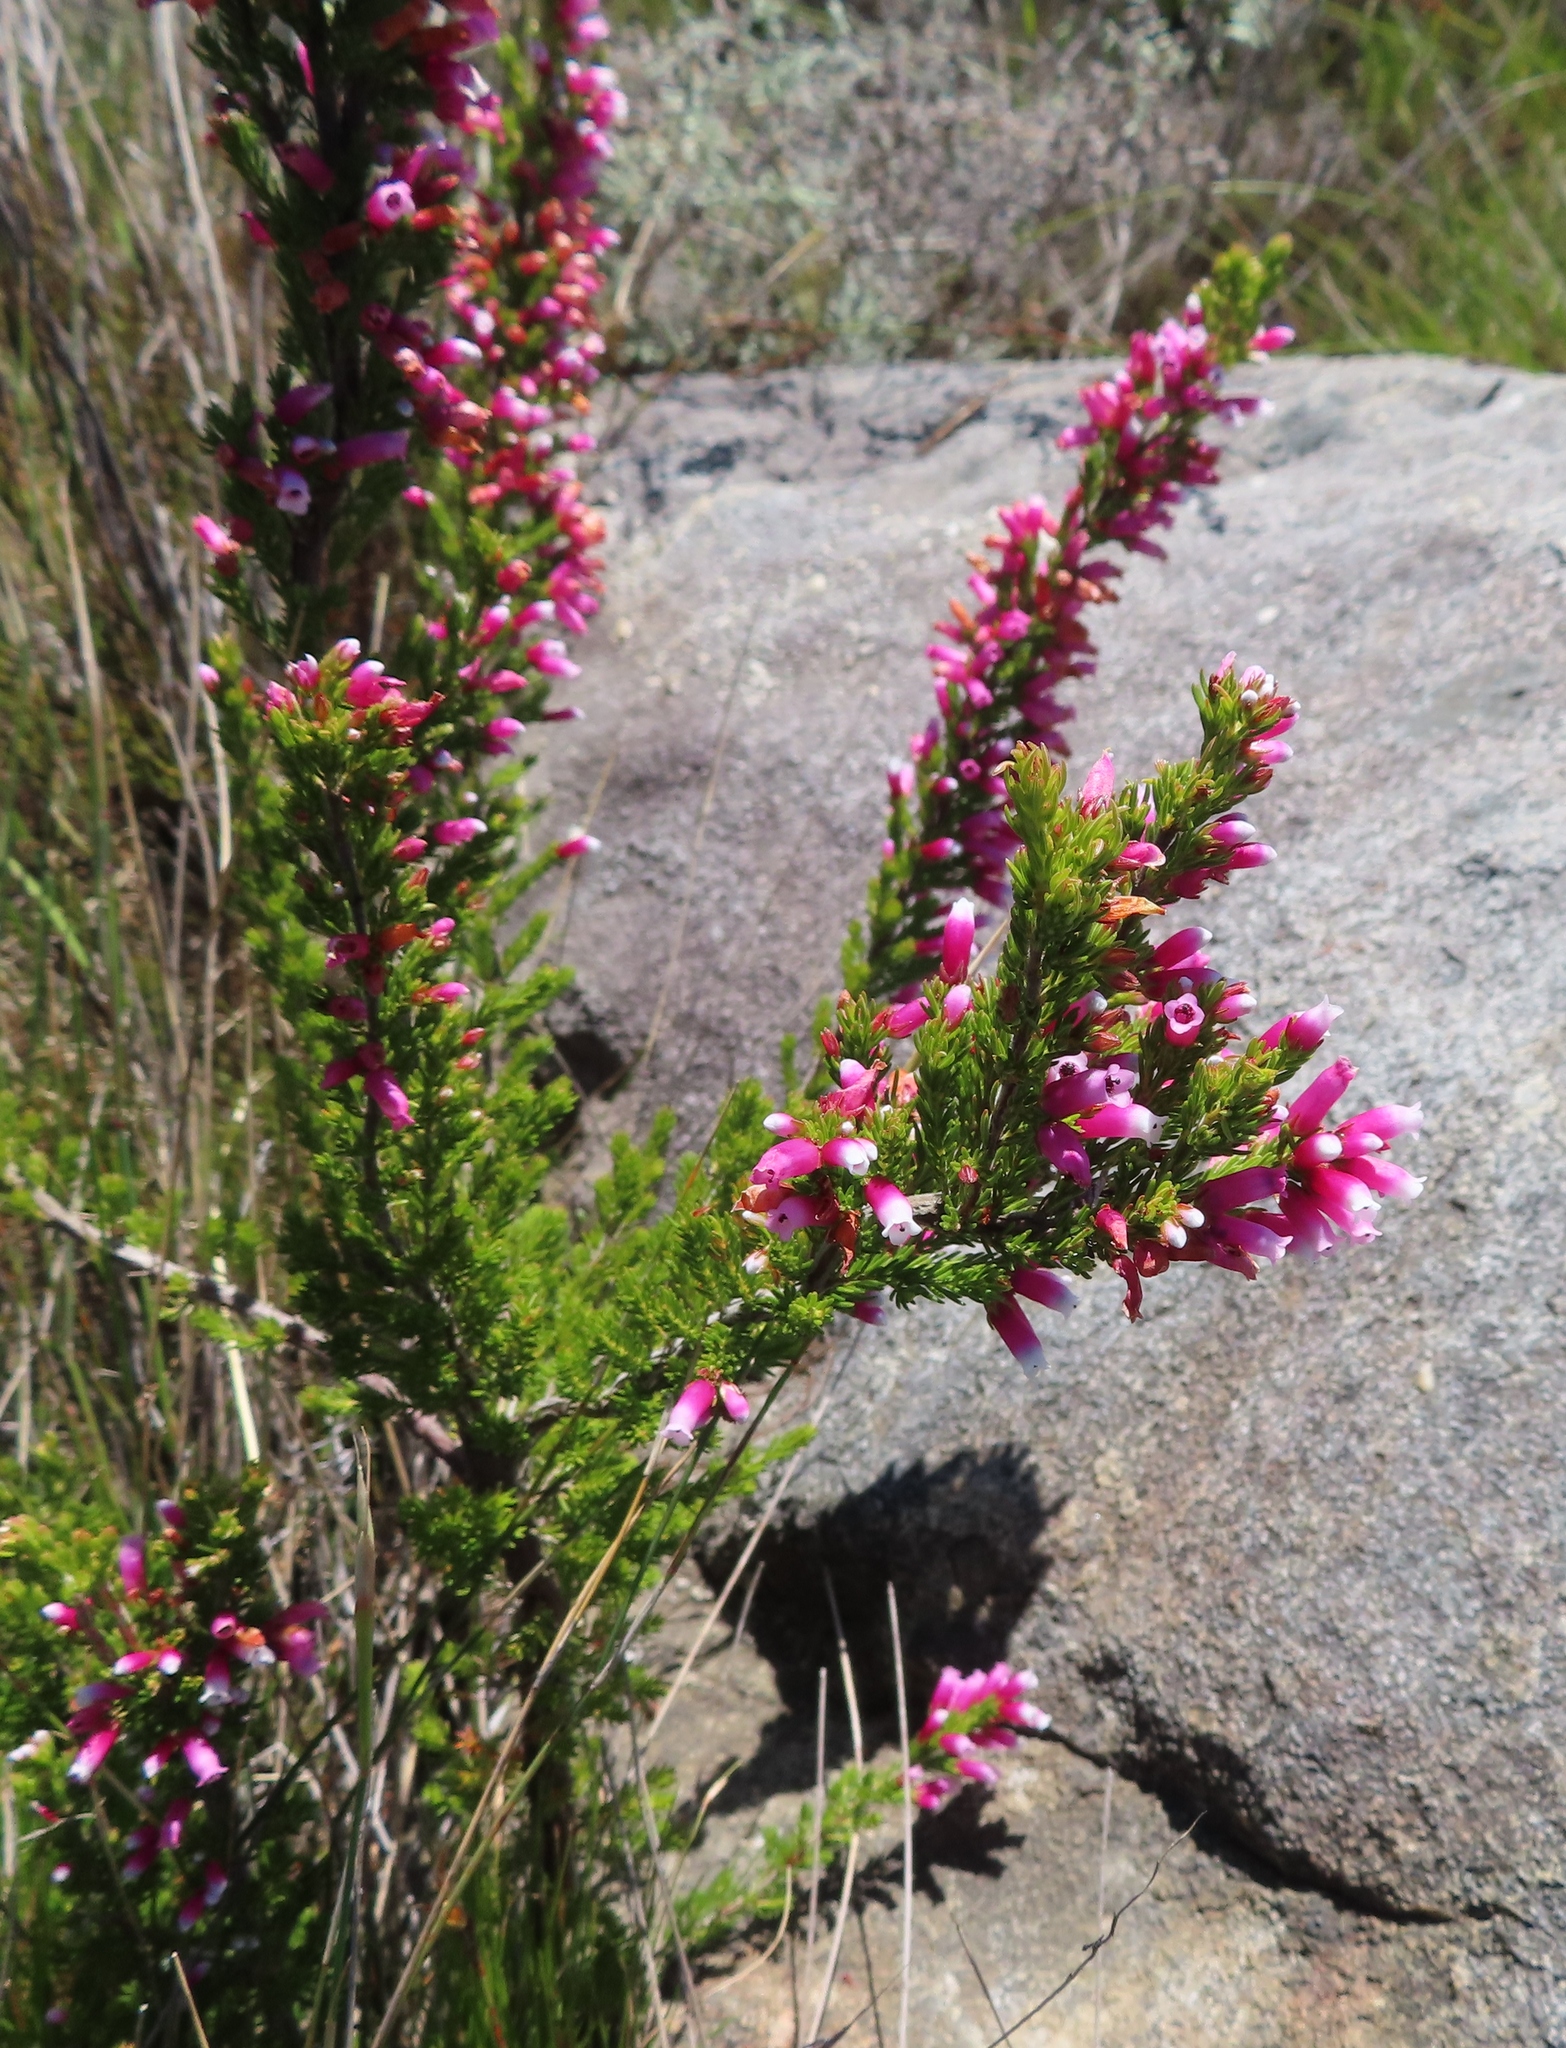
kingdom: Plantae
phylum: Tracheophyta
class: Magnoliopsida
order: Ericales
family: Ericaceae
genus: Erica
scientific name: Erica sitiens
